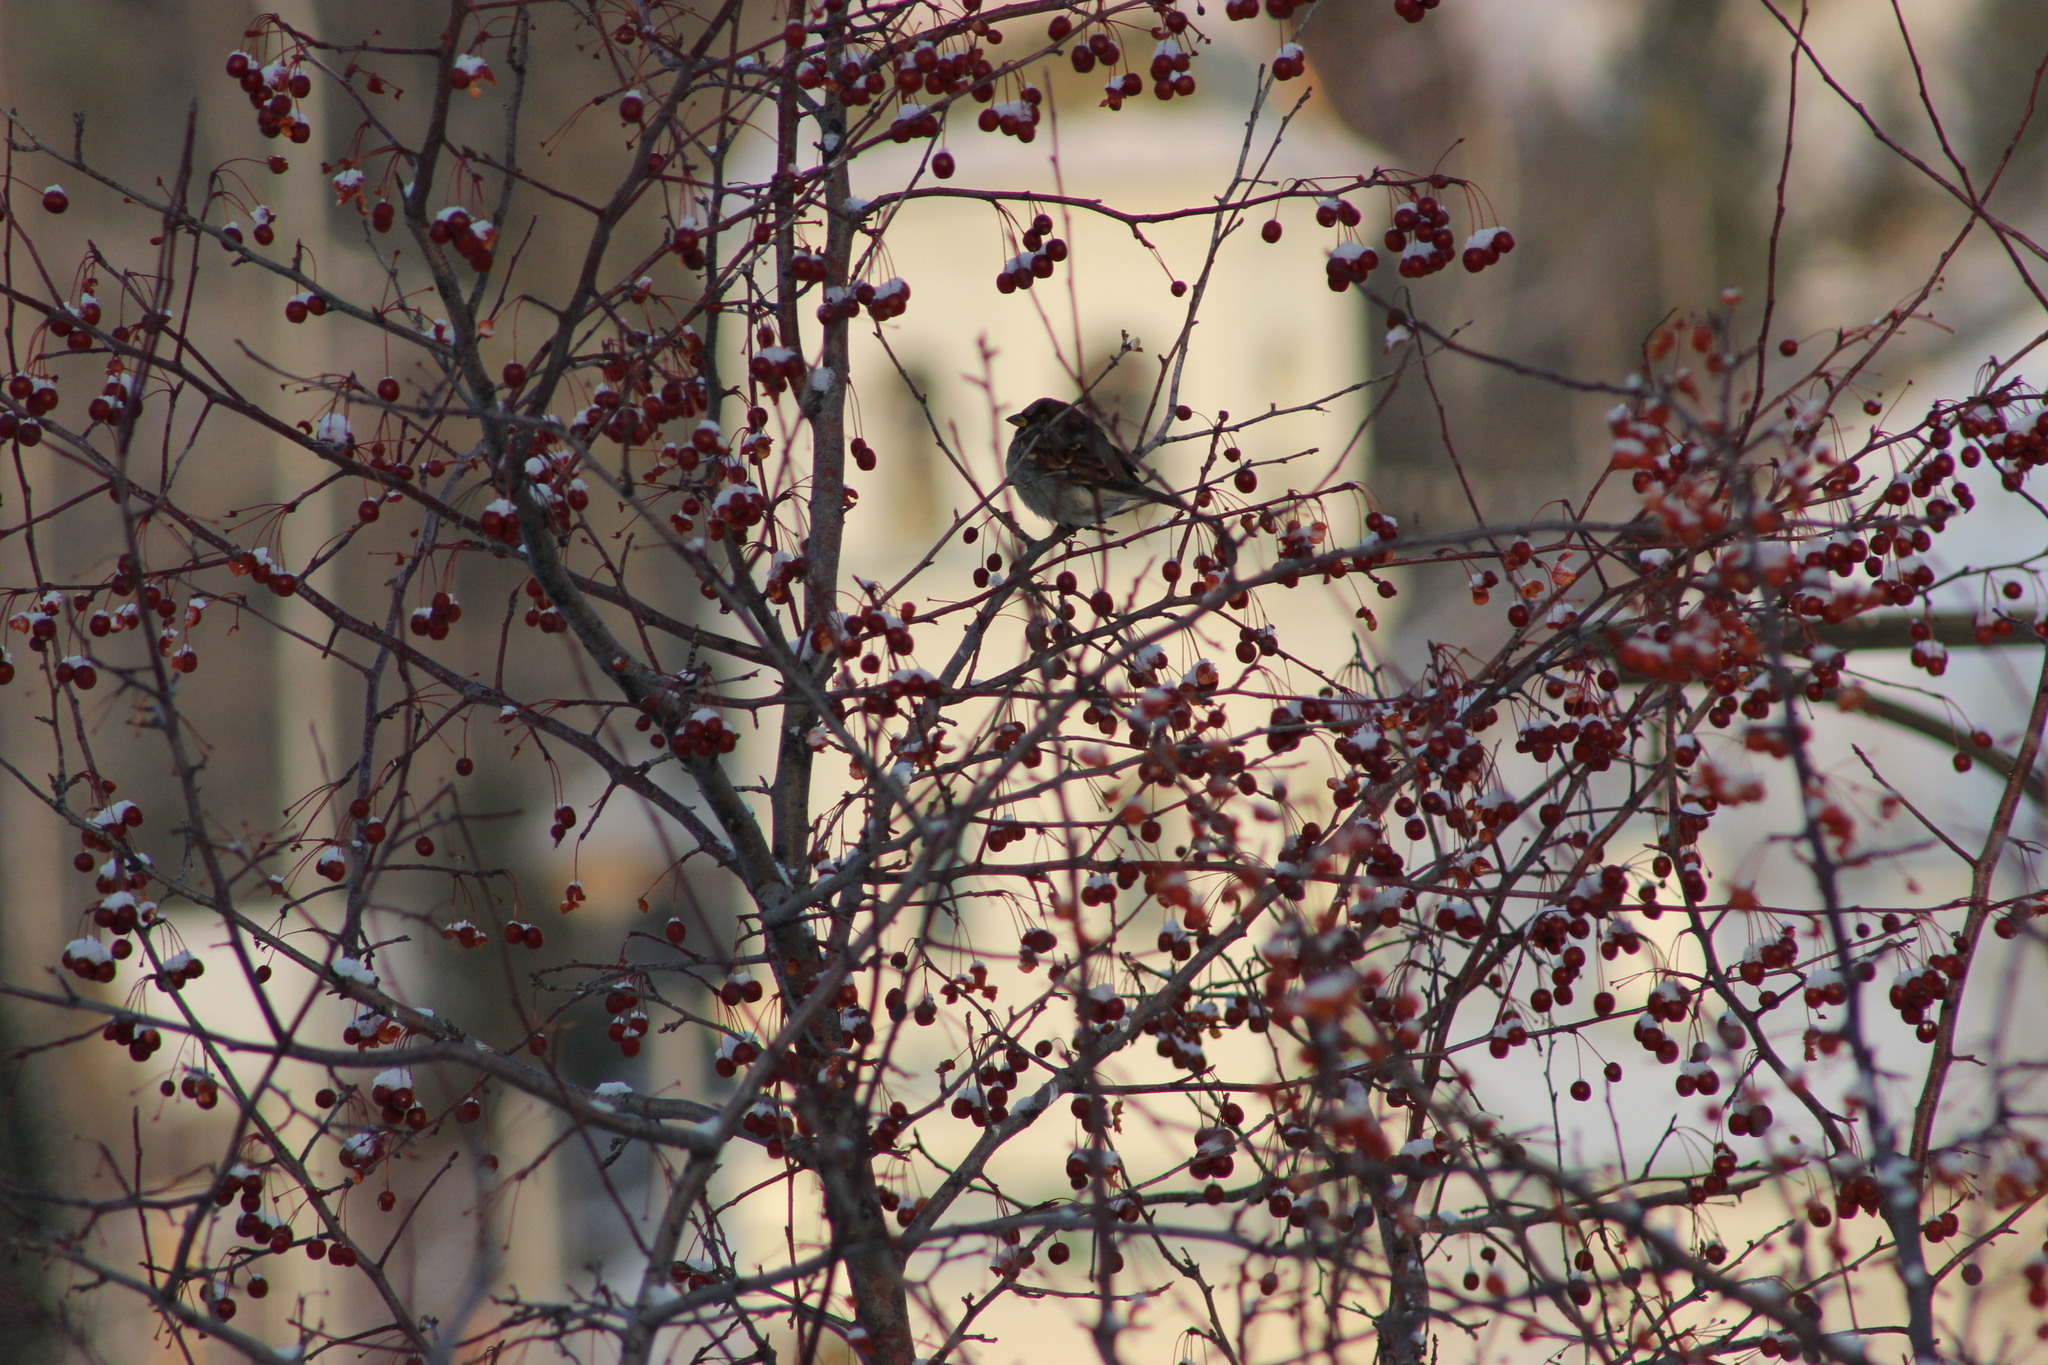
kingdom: Animalia
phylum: Chordata
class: Aves
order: Passeriformes
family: Passeridae
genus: Passer
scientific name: Passer domesticus
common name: House sparrow
